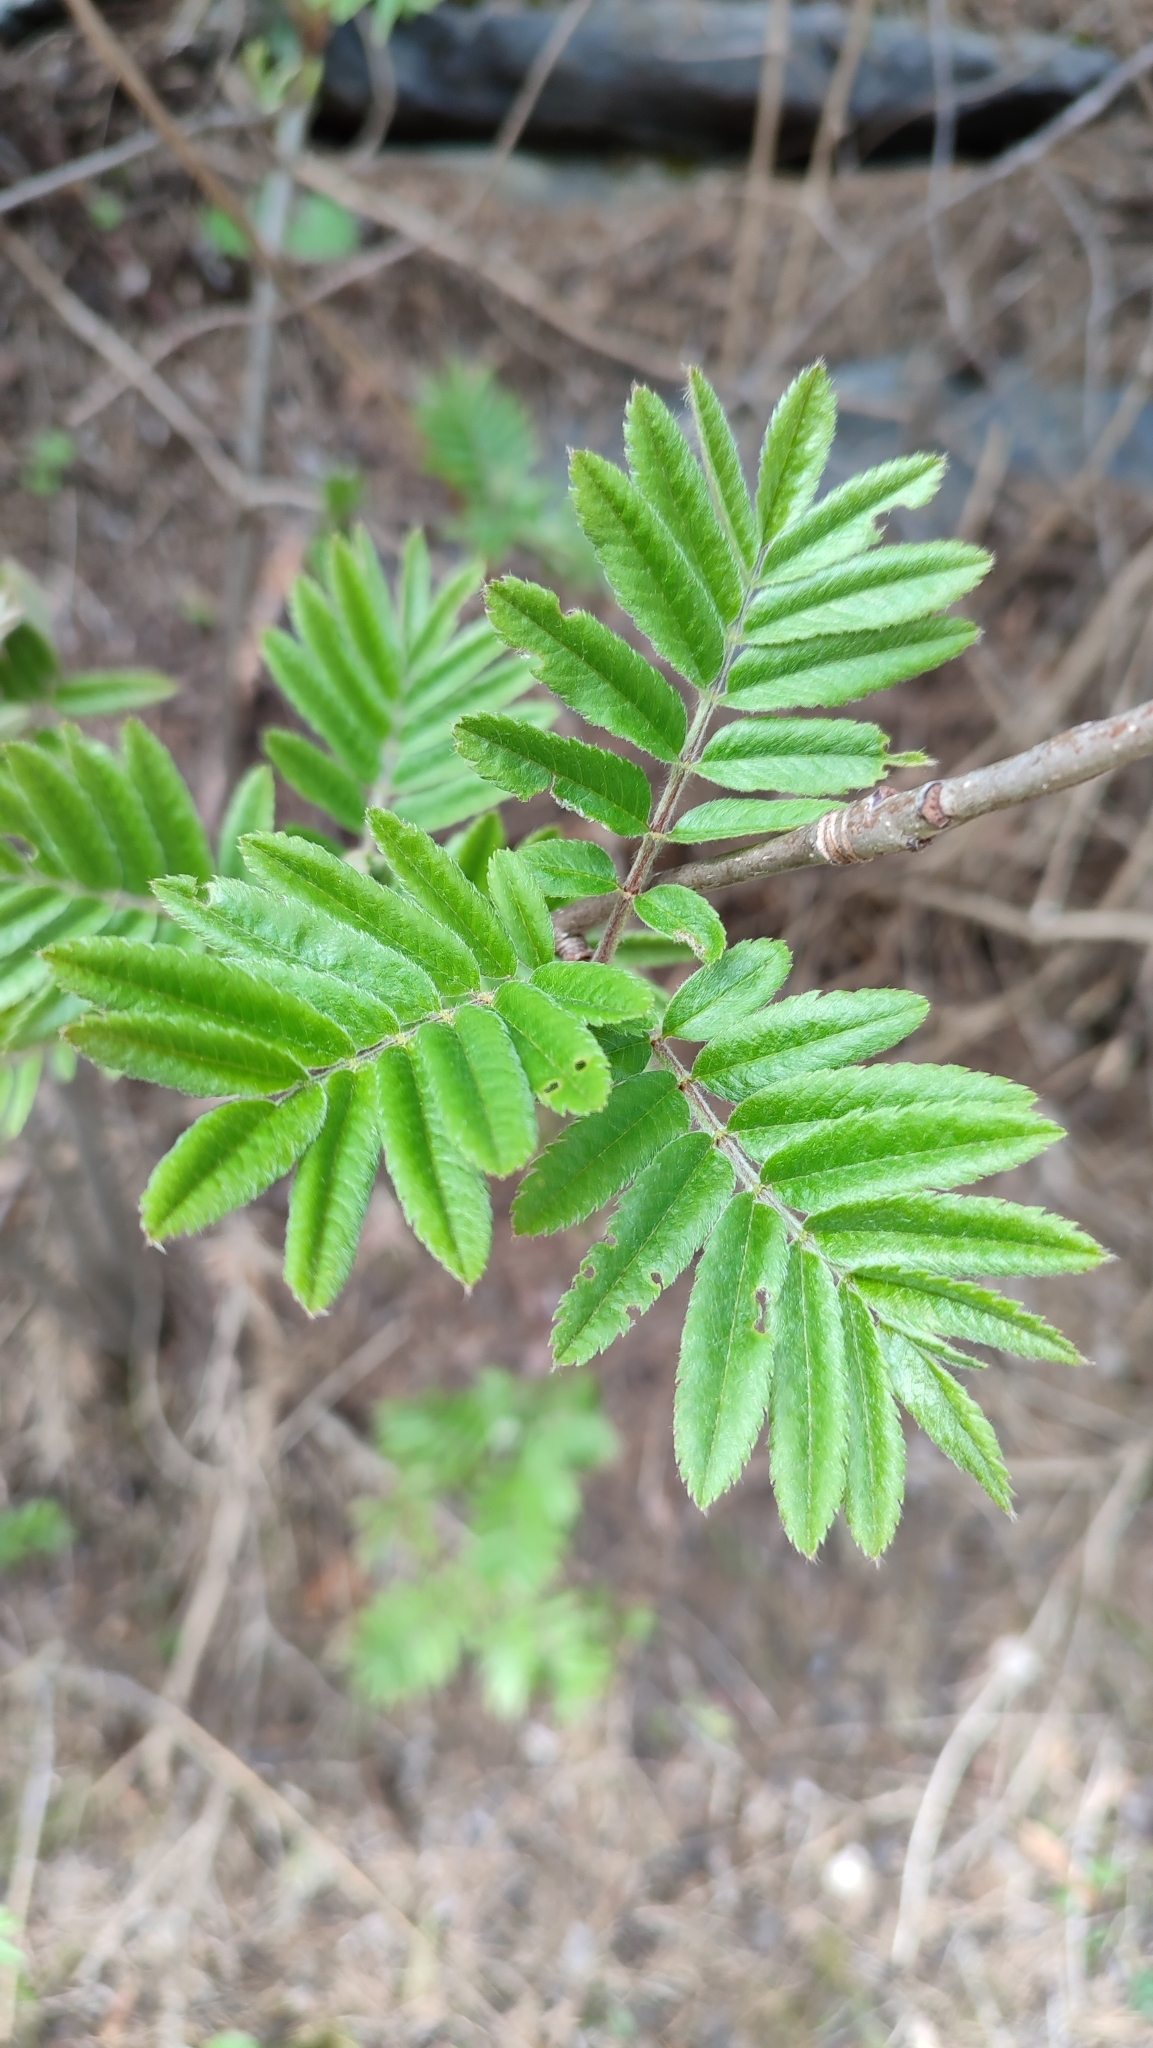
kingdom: Plantae
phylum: Tracheophyta
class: Magnoliopsida
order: Rosales
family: Rosaceae
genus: Sorbus
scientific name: Sorbus aucuparia
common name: Rowan
